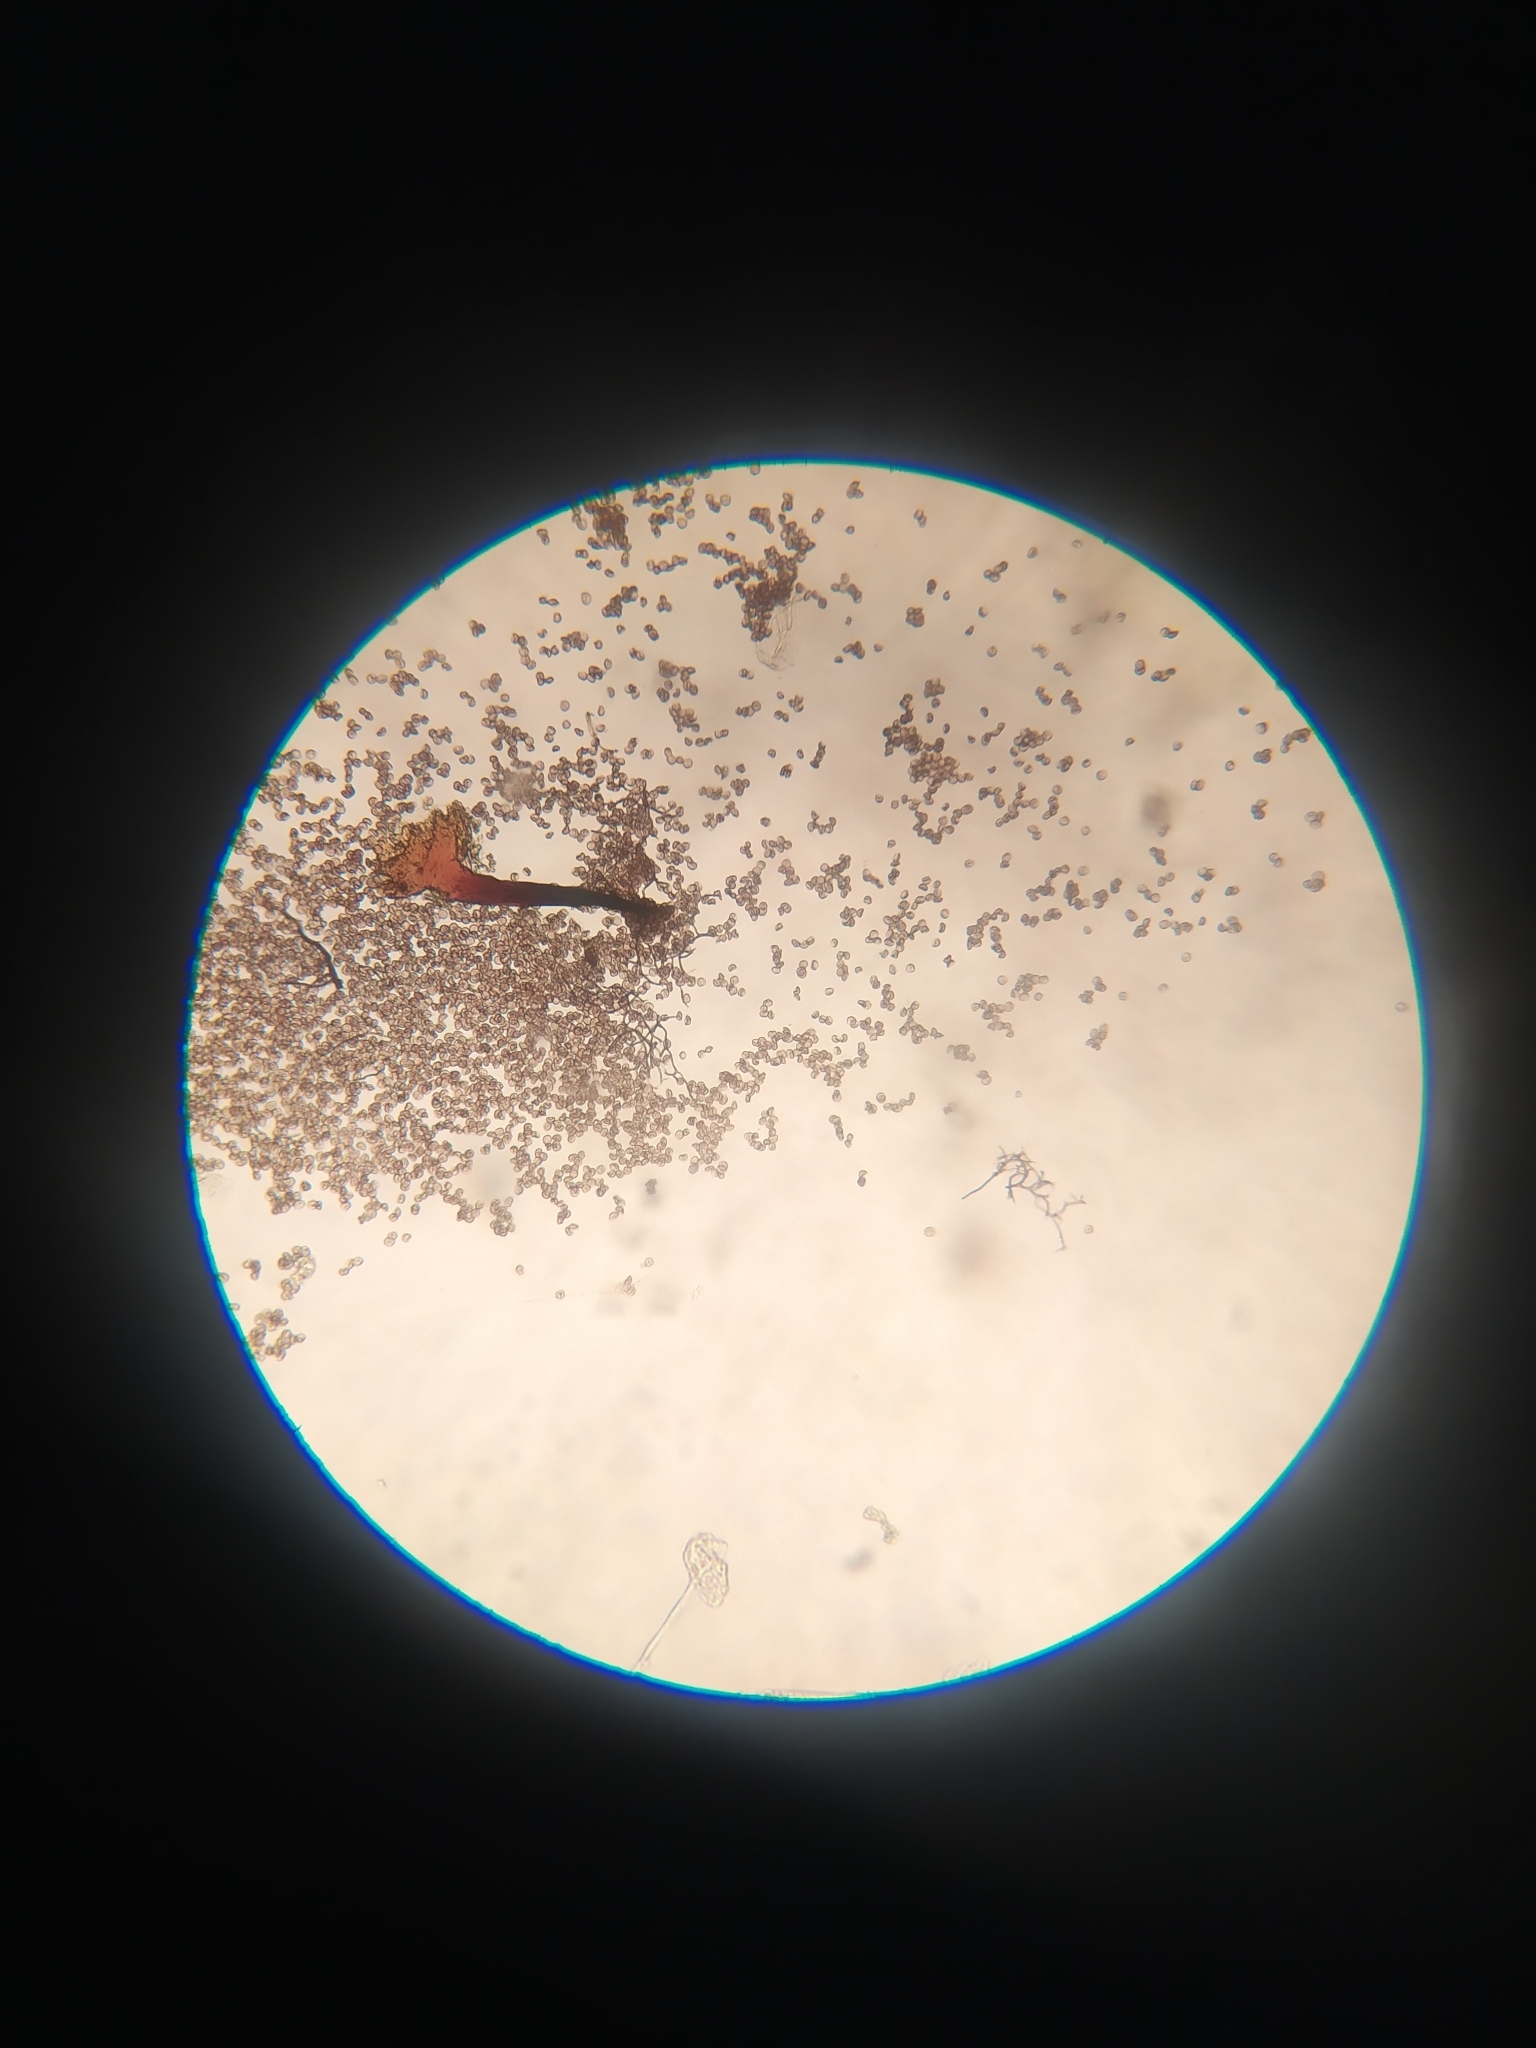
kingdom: Protozoa
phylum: Mycetozoa
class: Myxomycetes
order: Stemonitidales
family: Stemonitidaceae
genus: Macbrideola
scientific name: Macbrideola cornea
